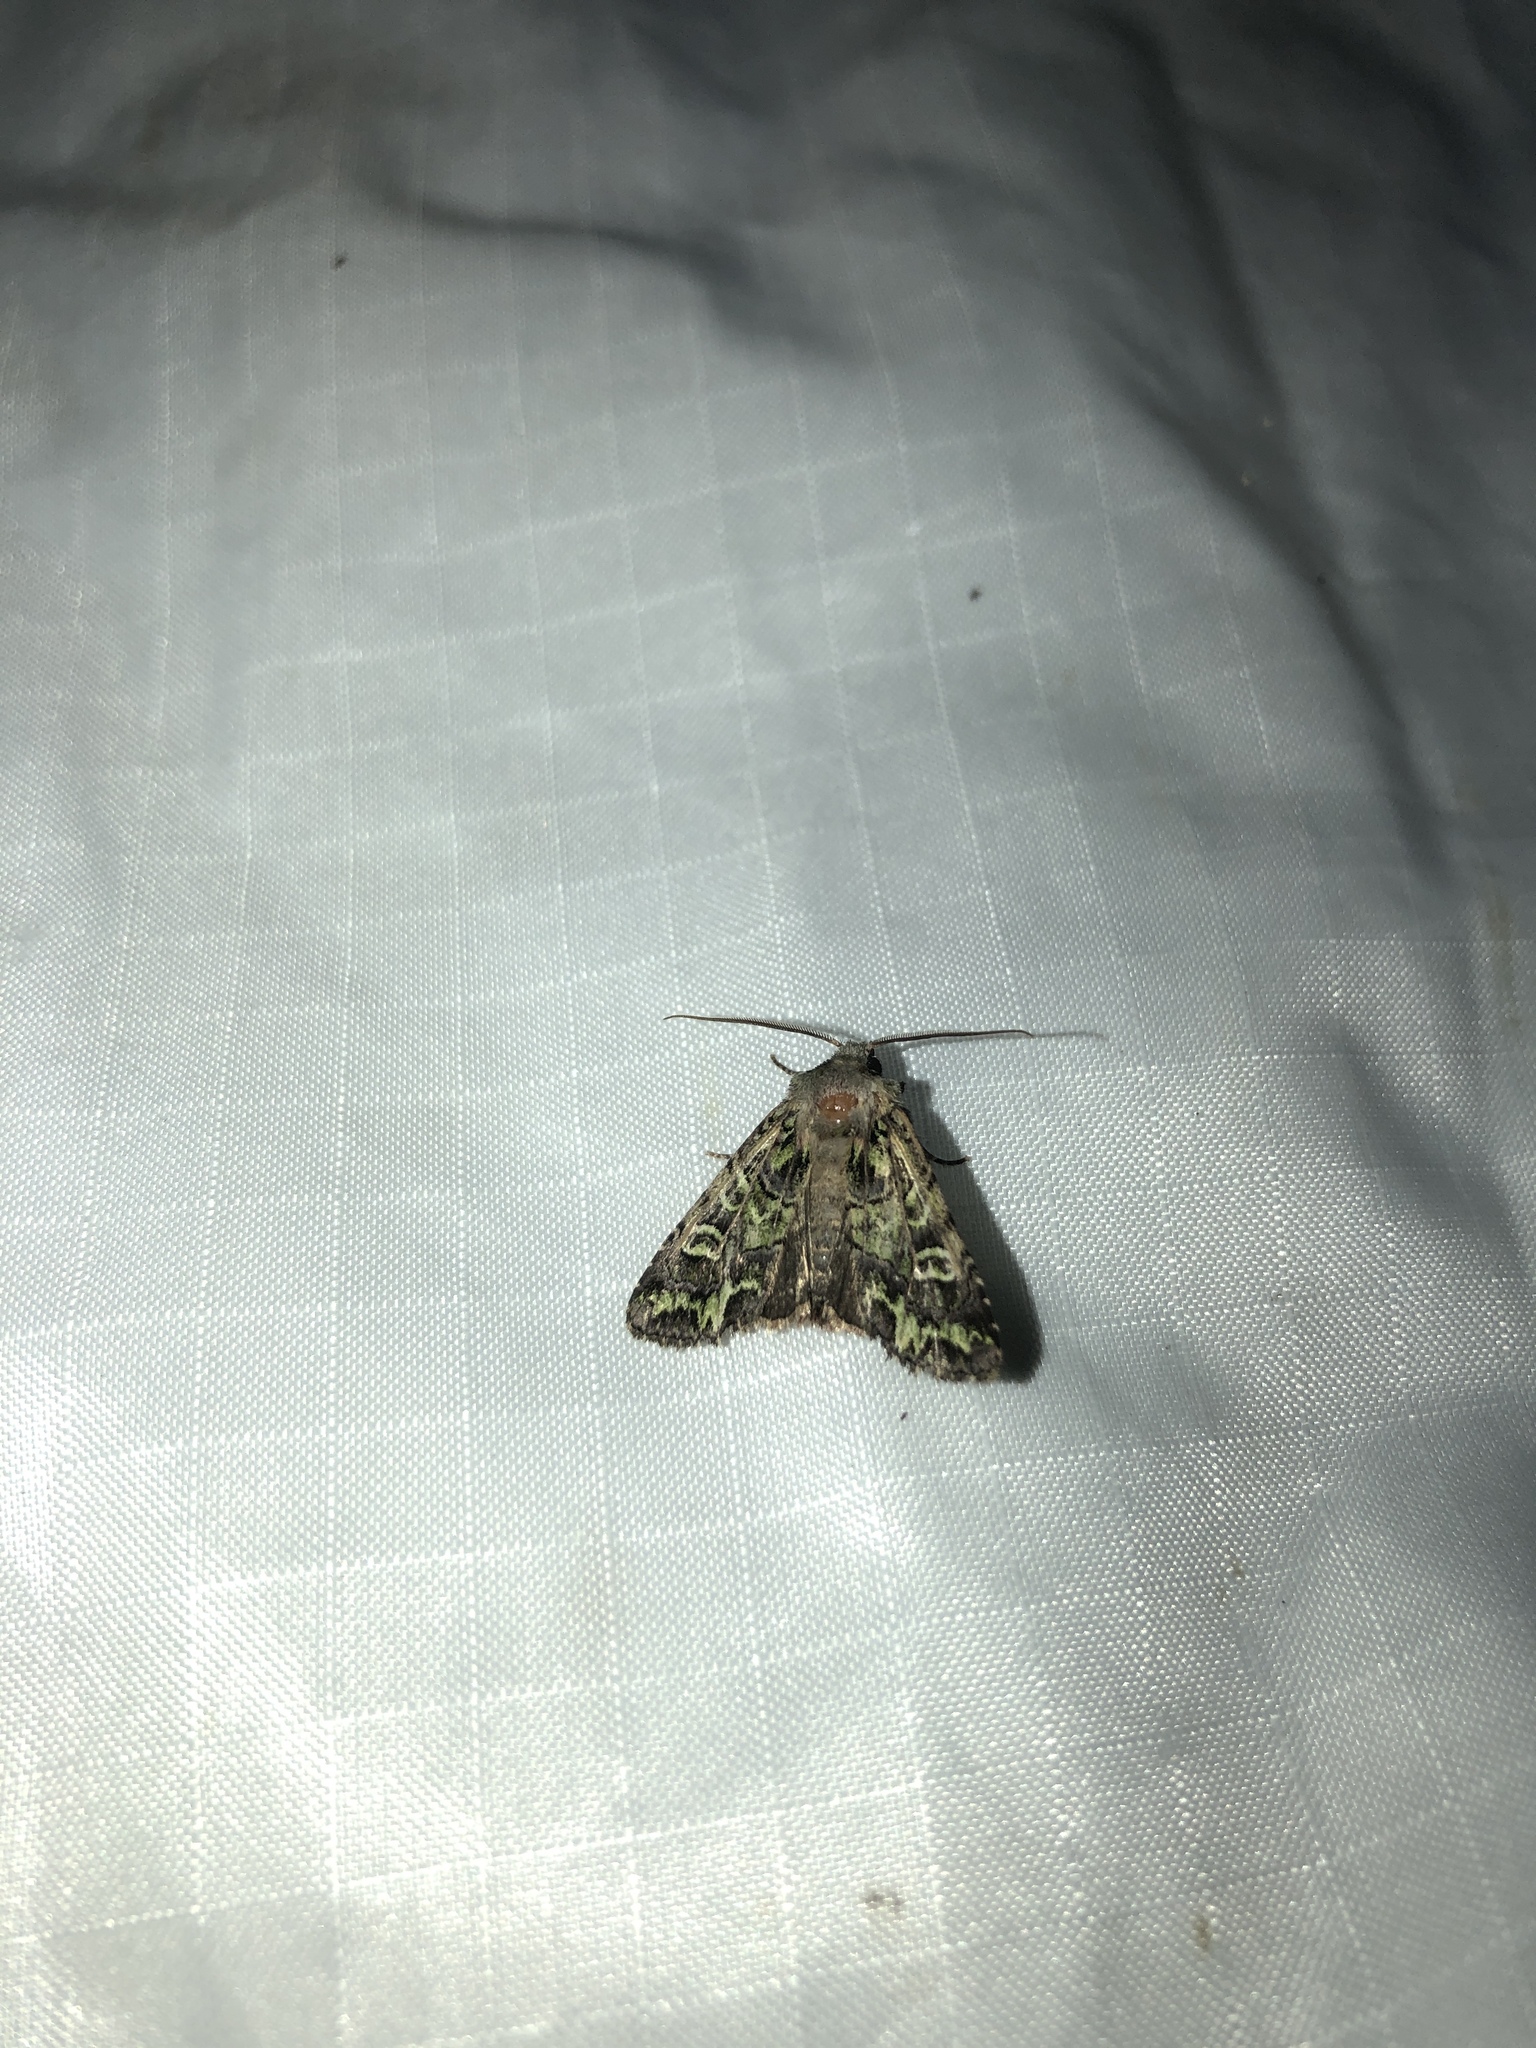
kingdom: Animalia
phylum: Arthropoda
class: Insecta
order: Lepidoptera
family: Noctuidae
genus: Ichneutica
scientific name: Ichneutica chlorodonta
